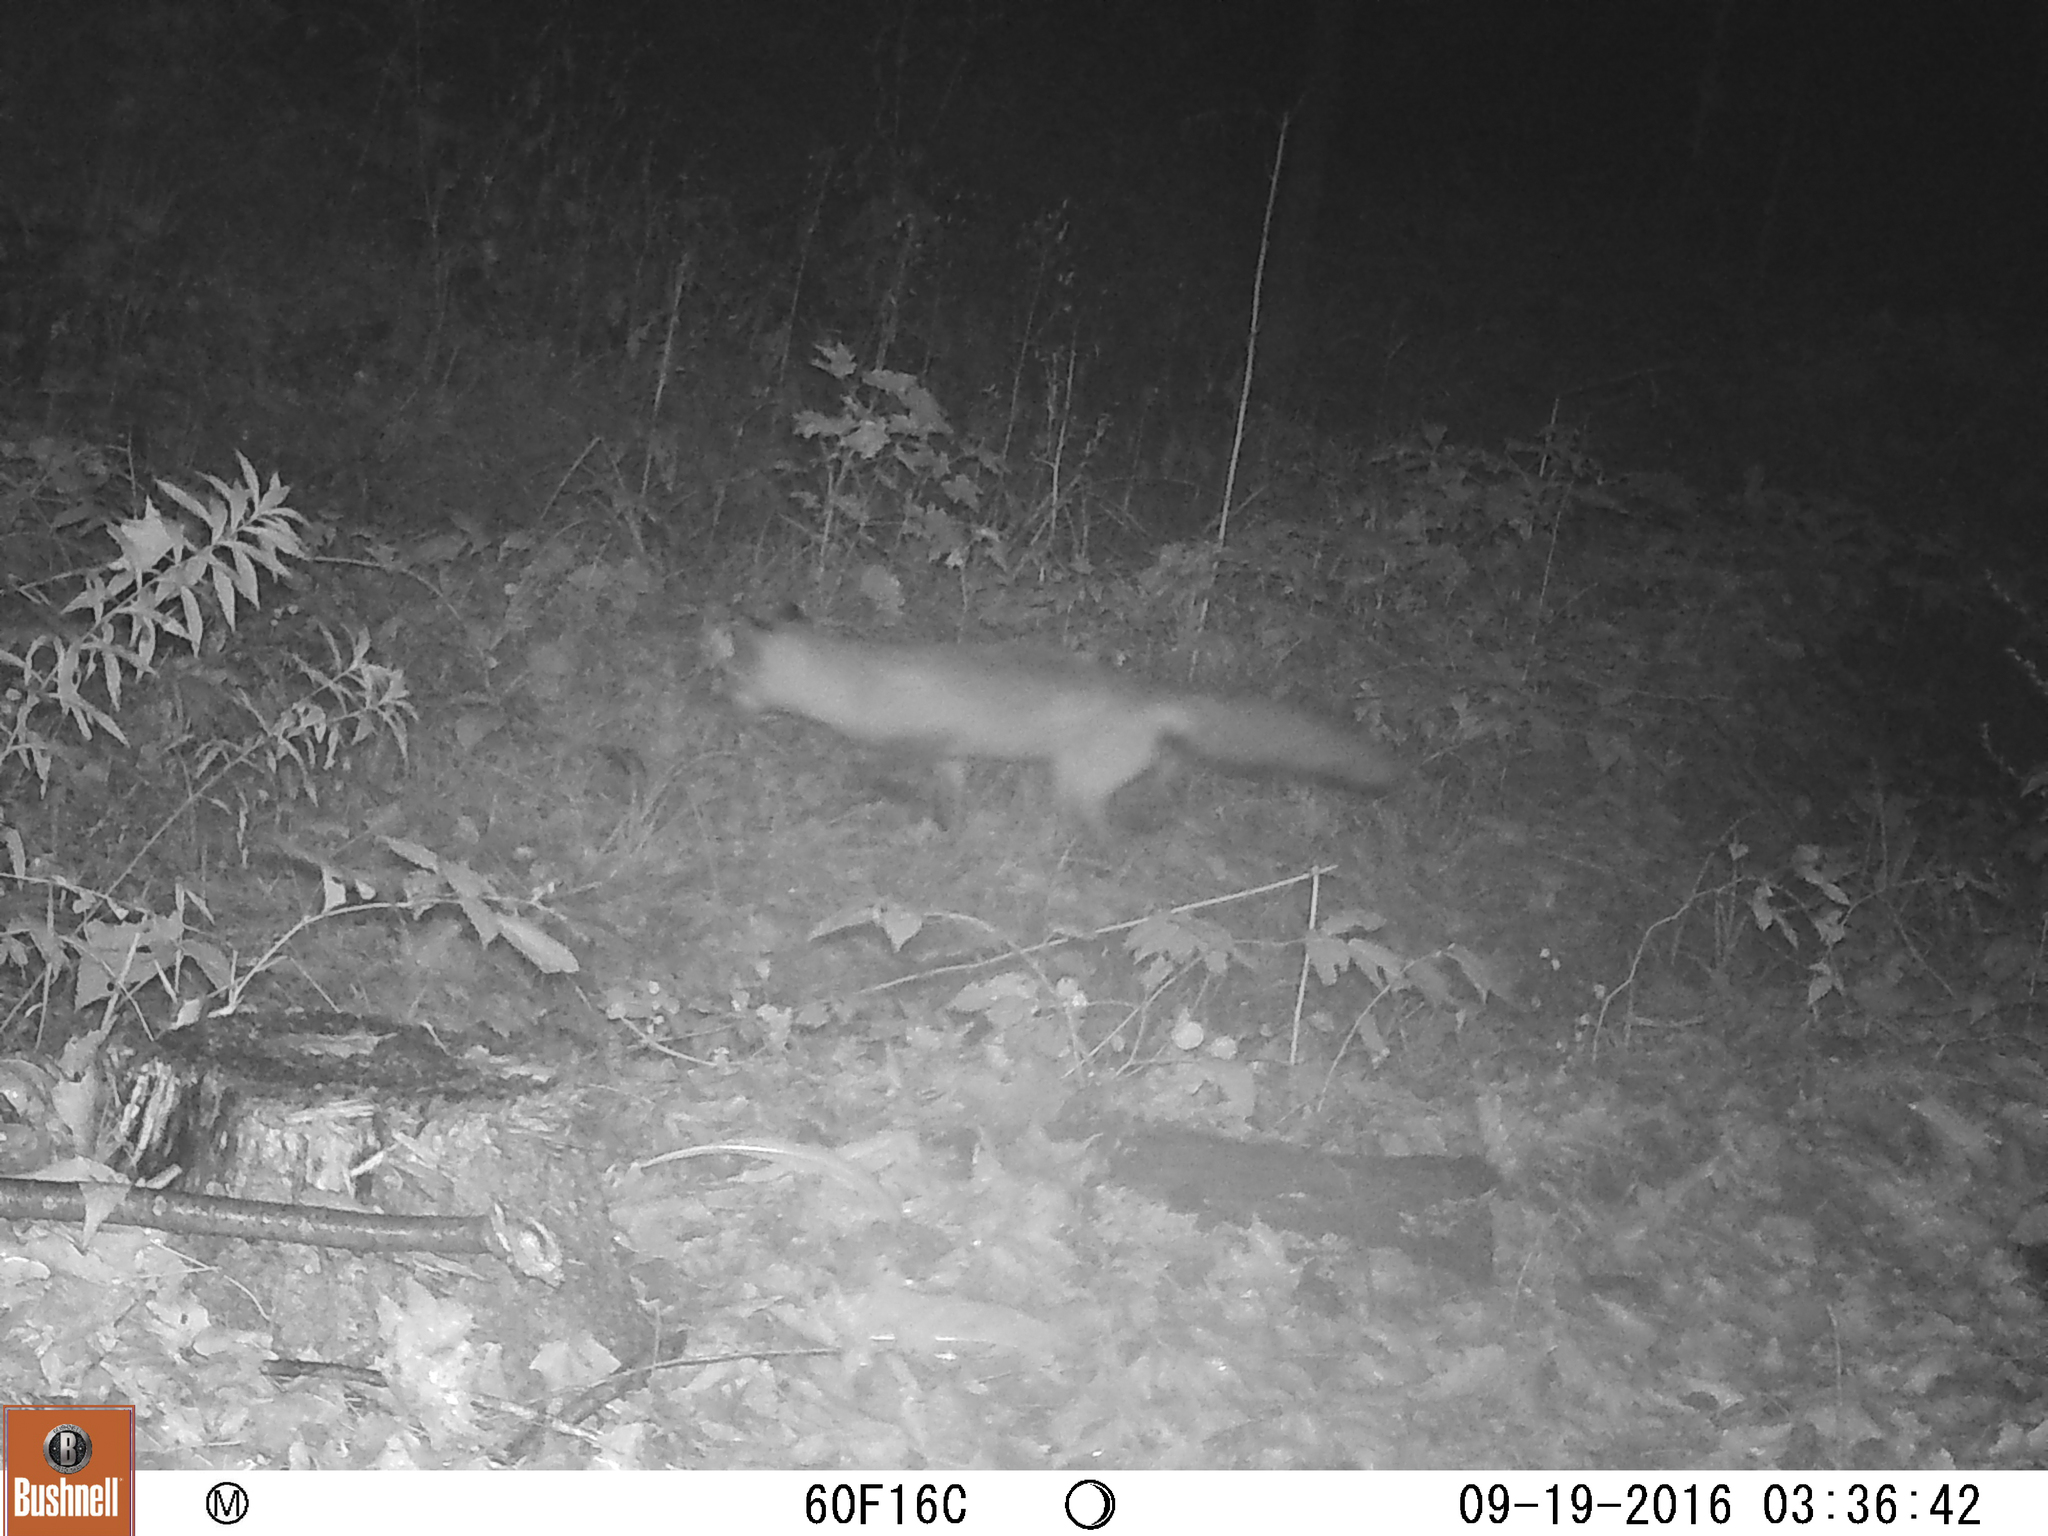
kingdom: Animalia
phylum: Chordata
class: Mammalia
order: Carnivora
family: Canidae
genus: Vulpes
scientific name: Vulpes vulpes
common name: Red fox
